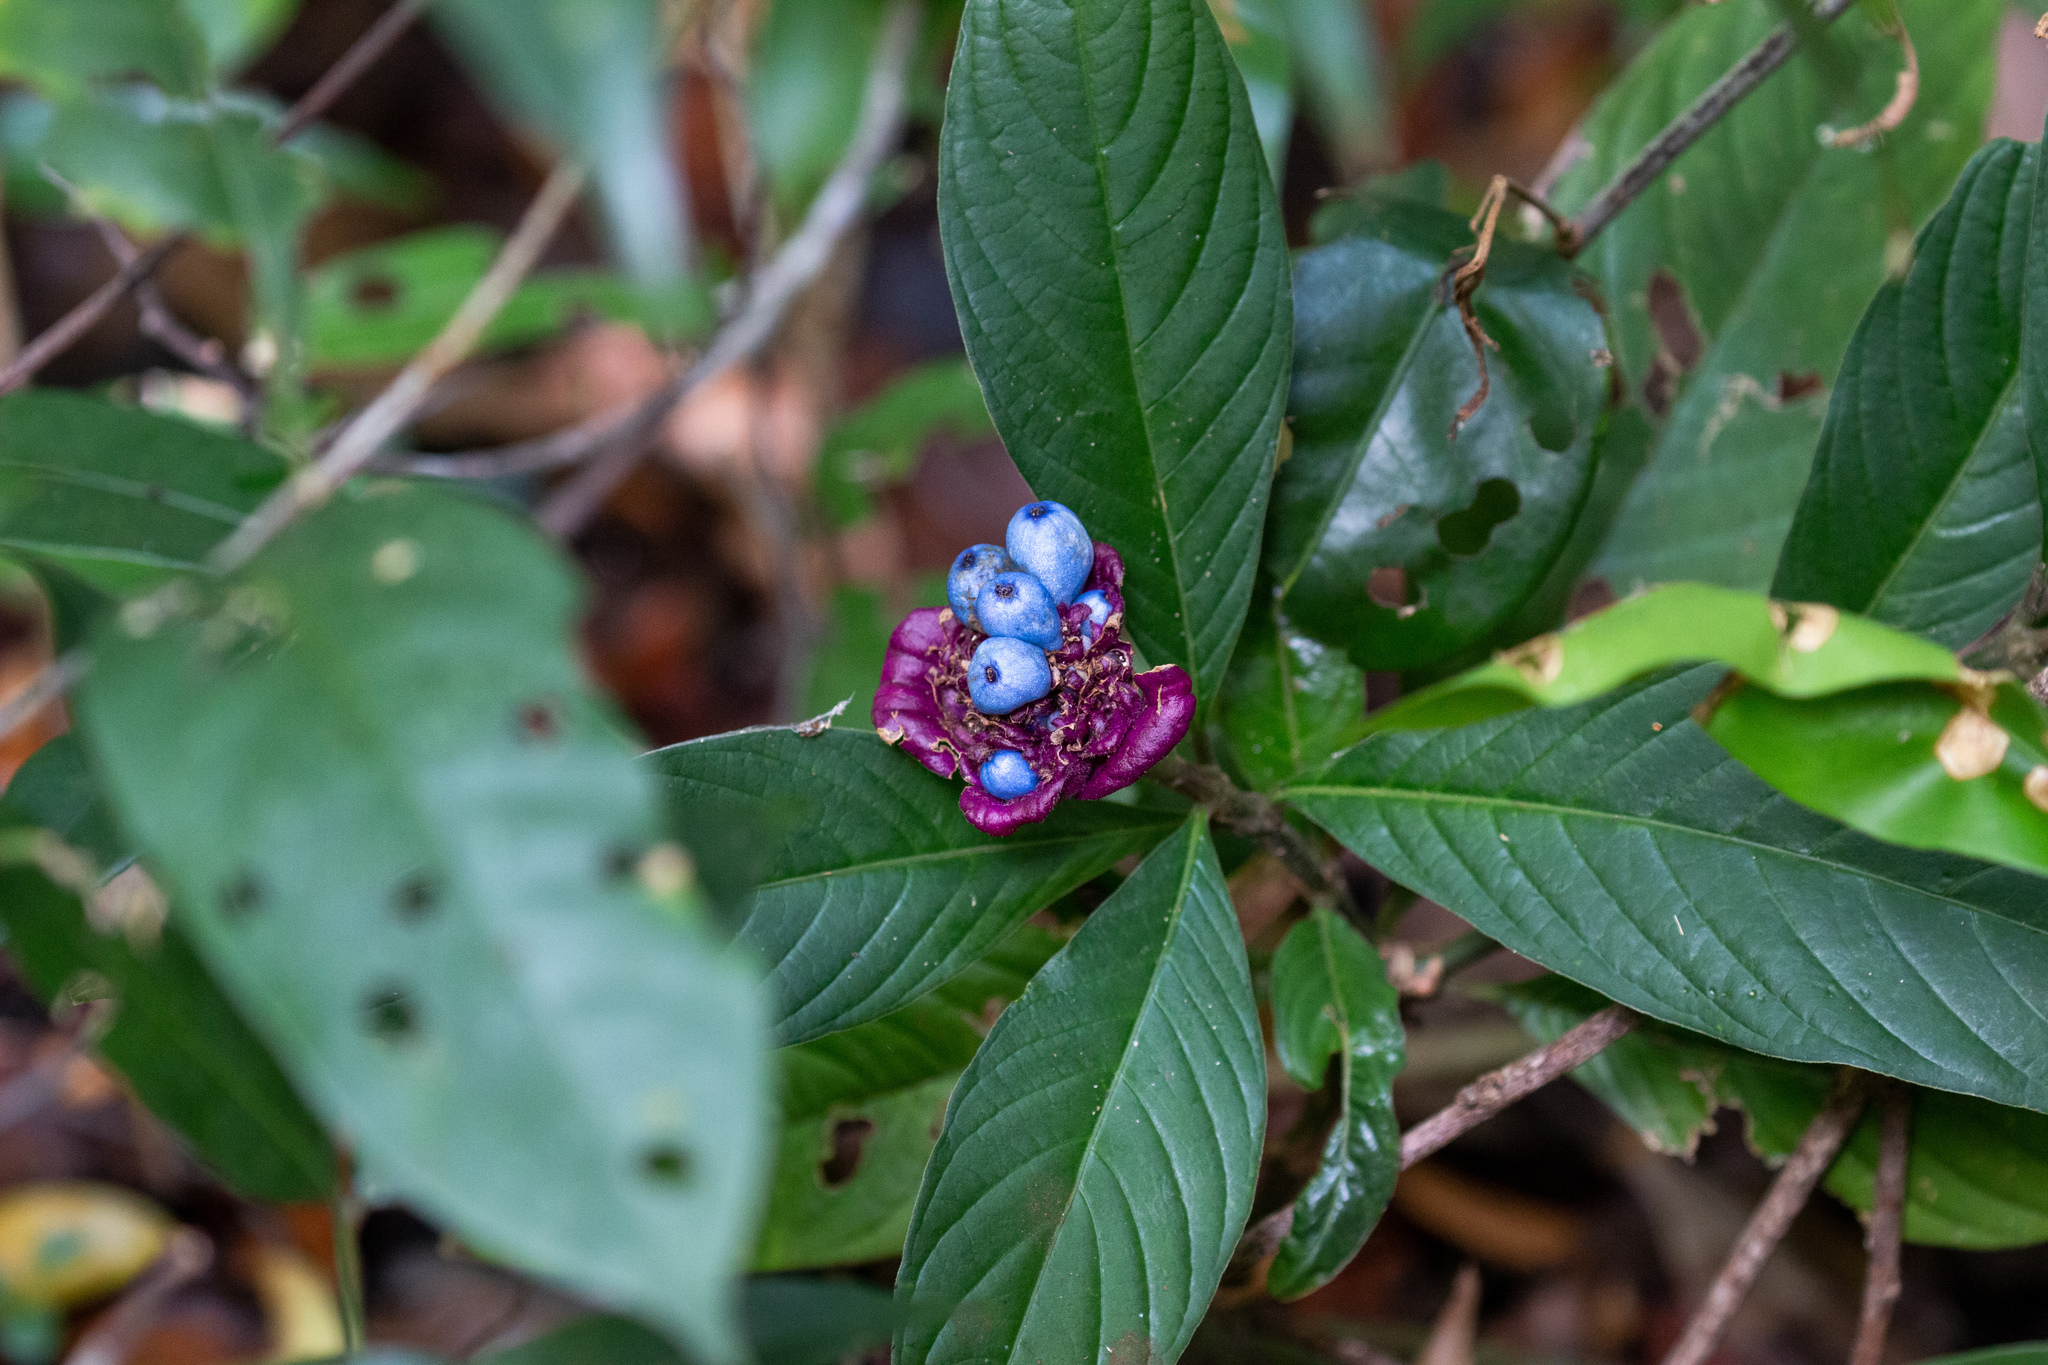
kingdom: Plantae
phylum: Tracheophyta
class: Magnoliopsida
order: Gentianales
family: Rubiaceae
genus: Palicourea
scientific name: Palicourea colorata
